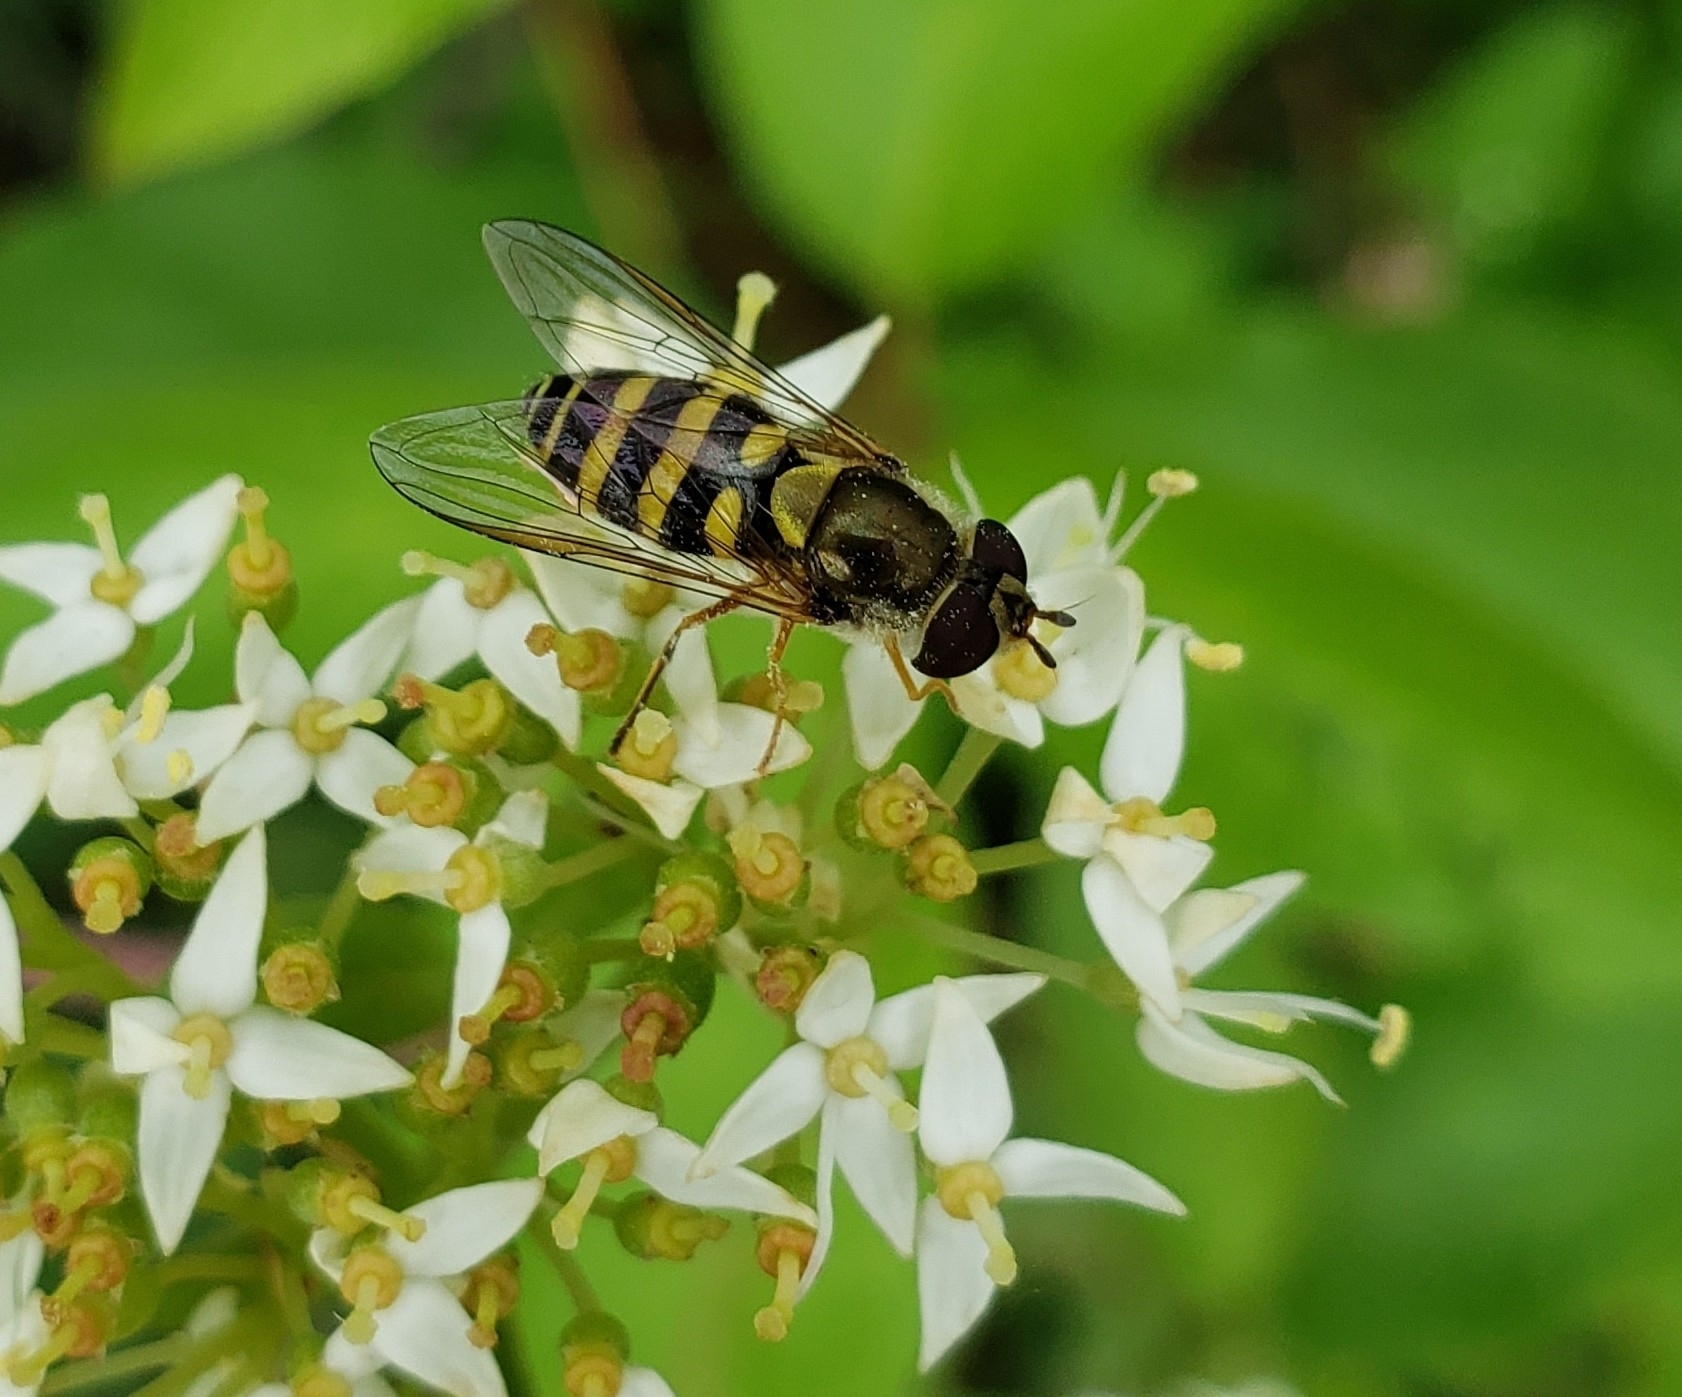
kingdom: Animalia
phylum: Arthropoda
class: Insecta
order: Diptera
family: Syrphidae
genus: Syrphus
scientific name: Syrphus rectus
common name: Yellow-legged flower fly
